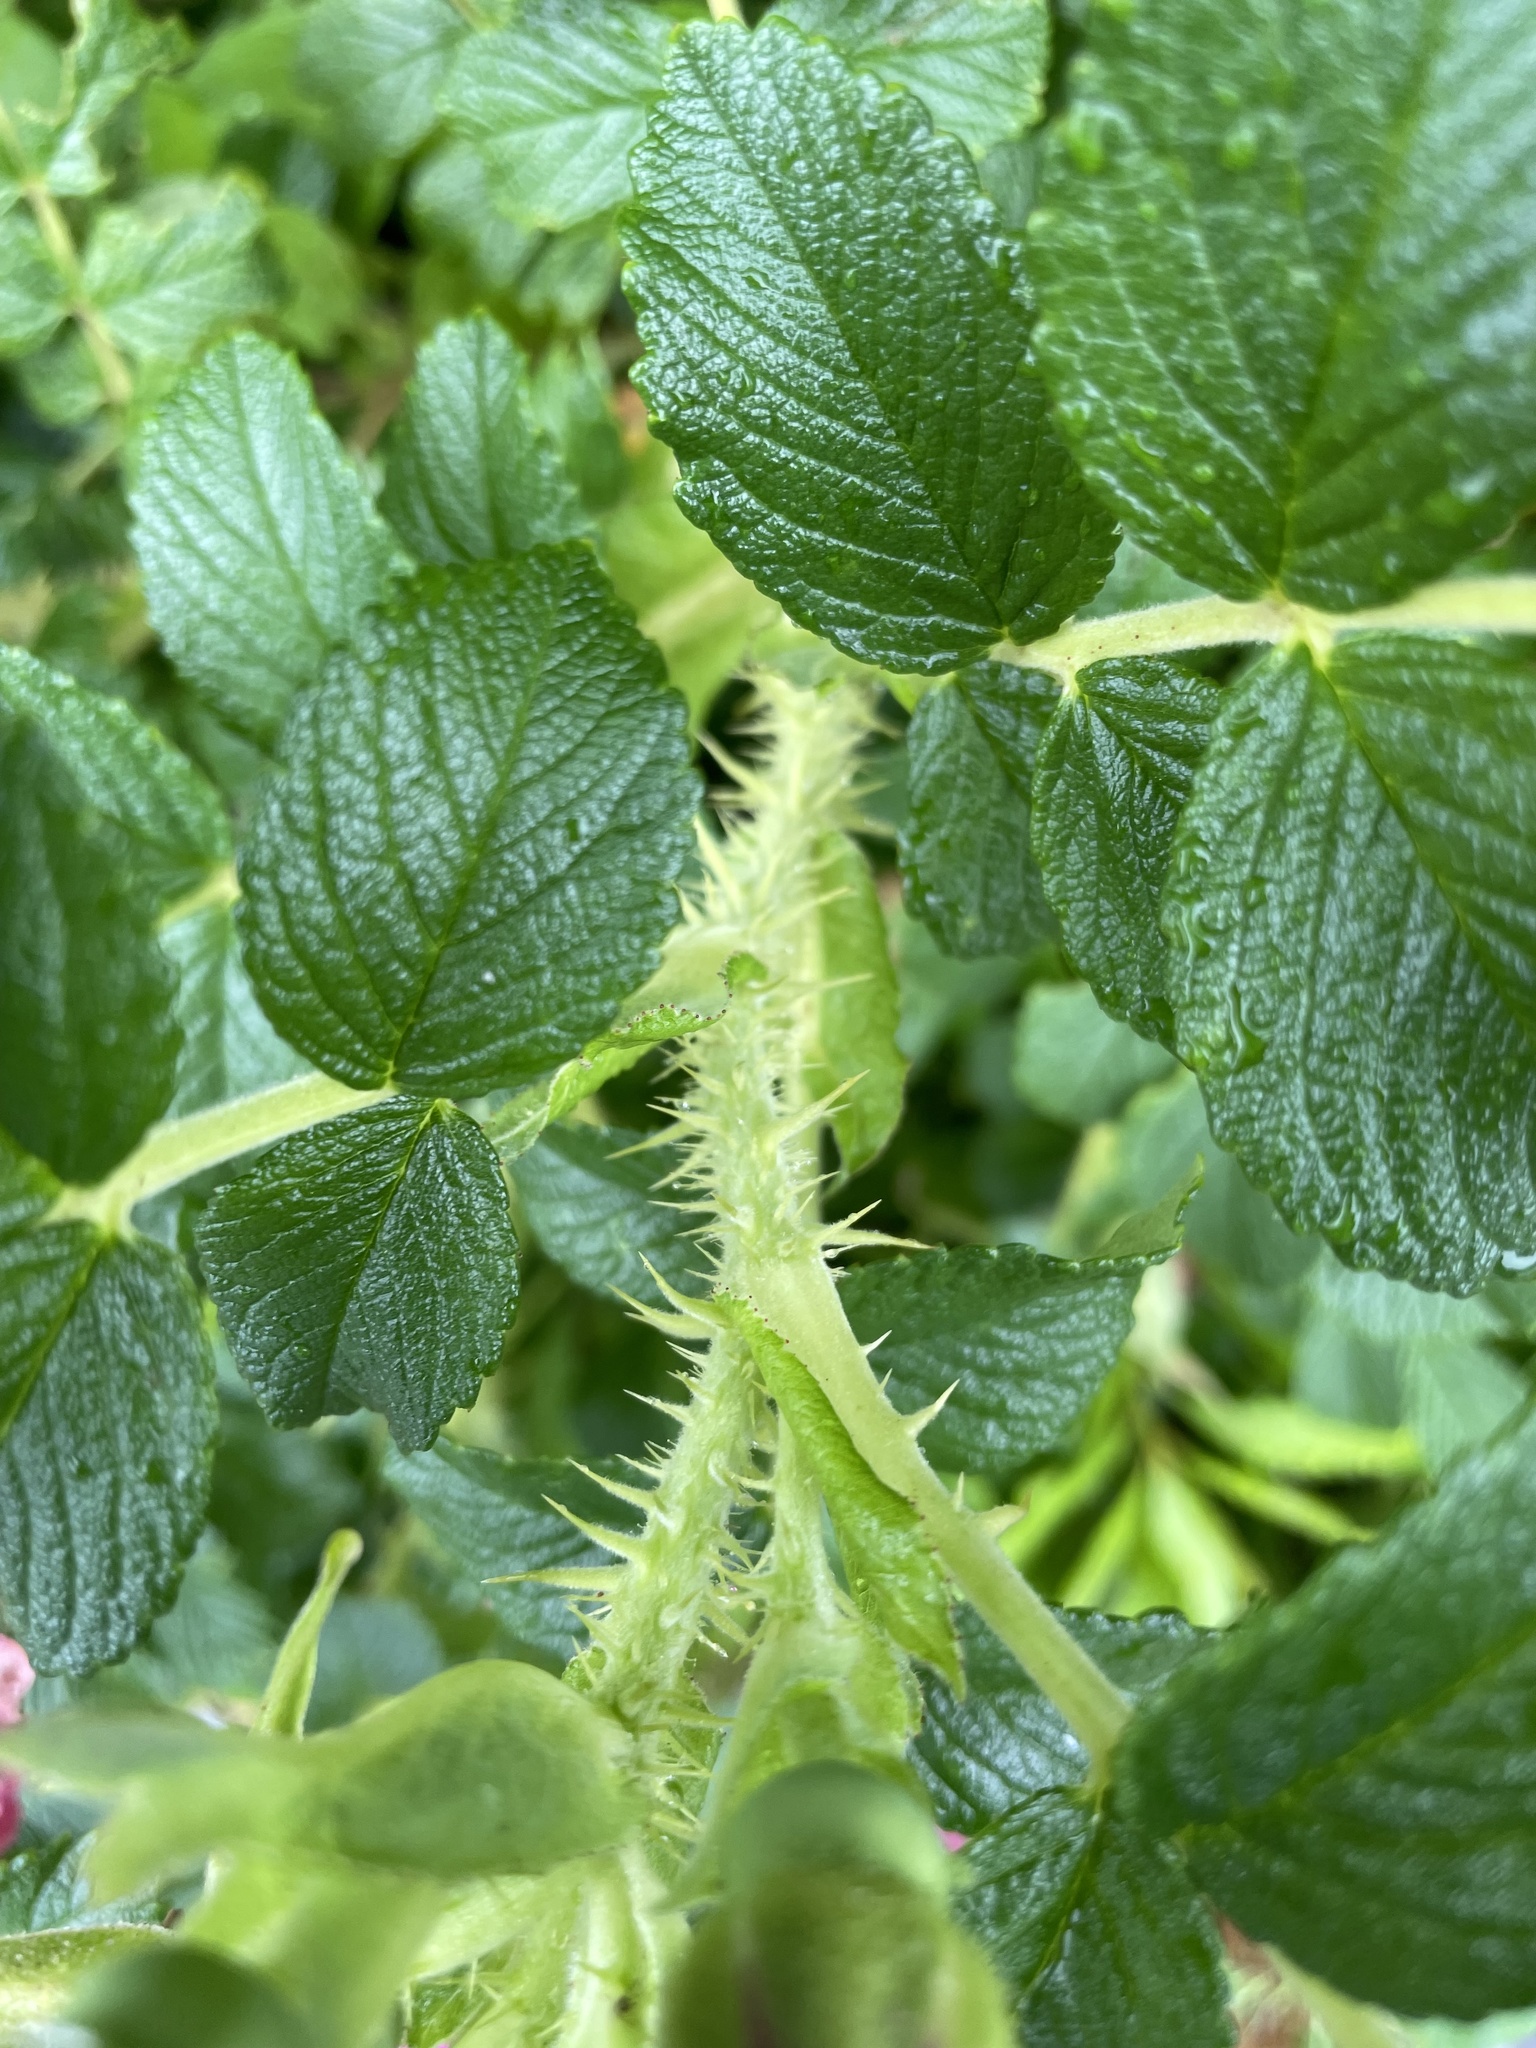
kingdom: Plantae
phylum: Tracheophyta
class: Magnoliopsida
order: Rosales
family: Rosaceae
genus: Rosa
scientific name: Rosa rugosa
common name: Japanese rose
